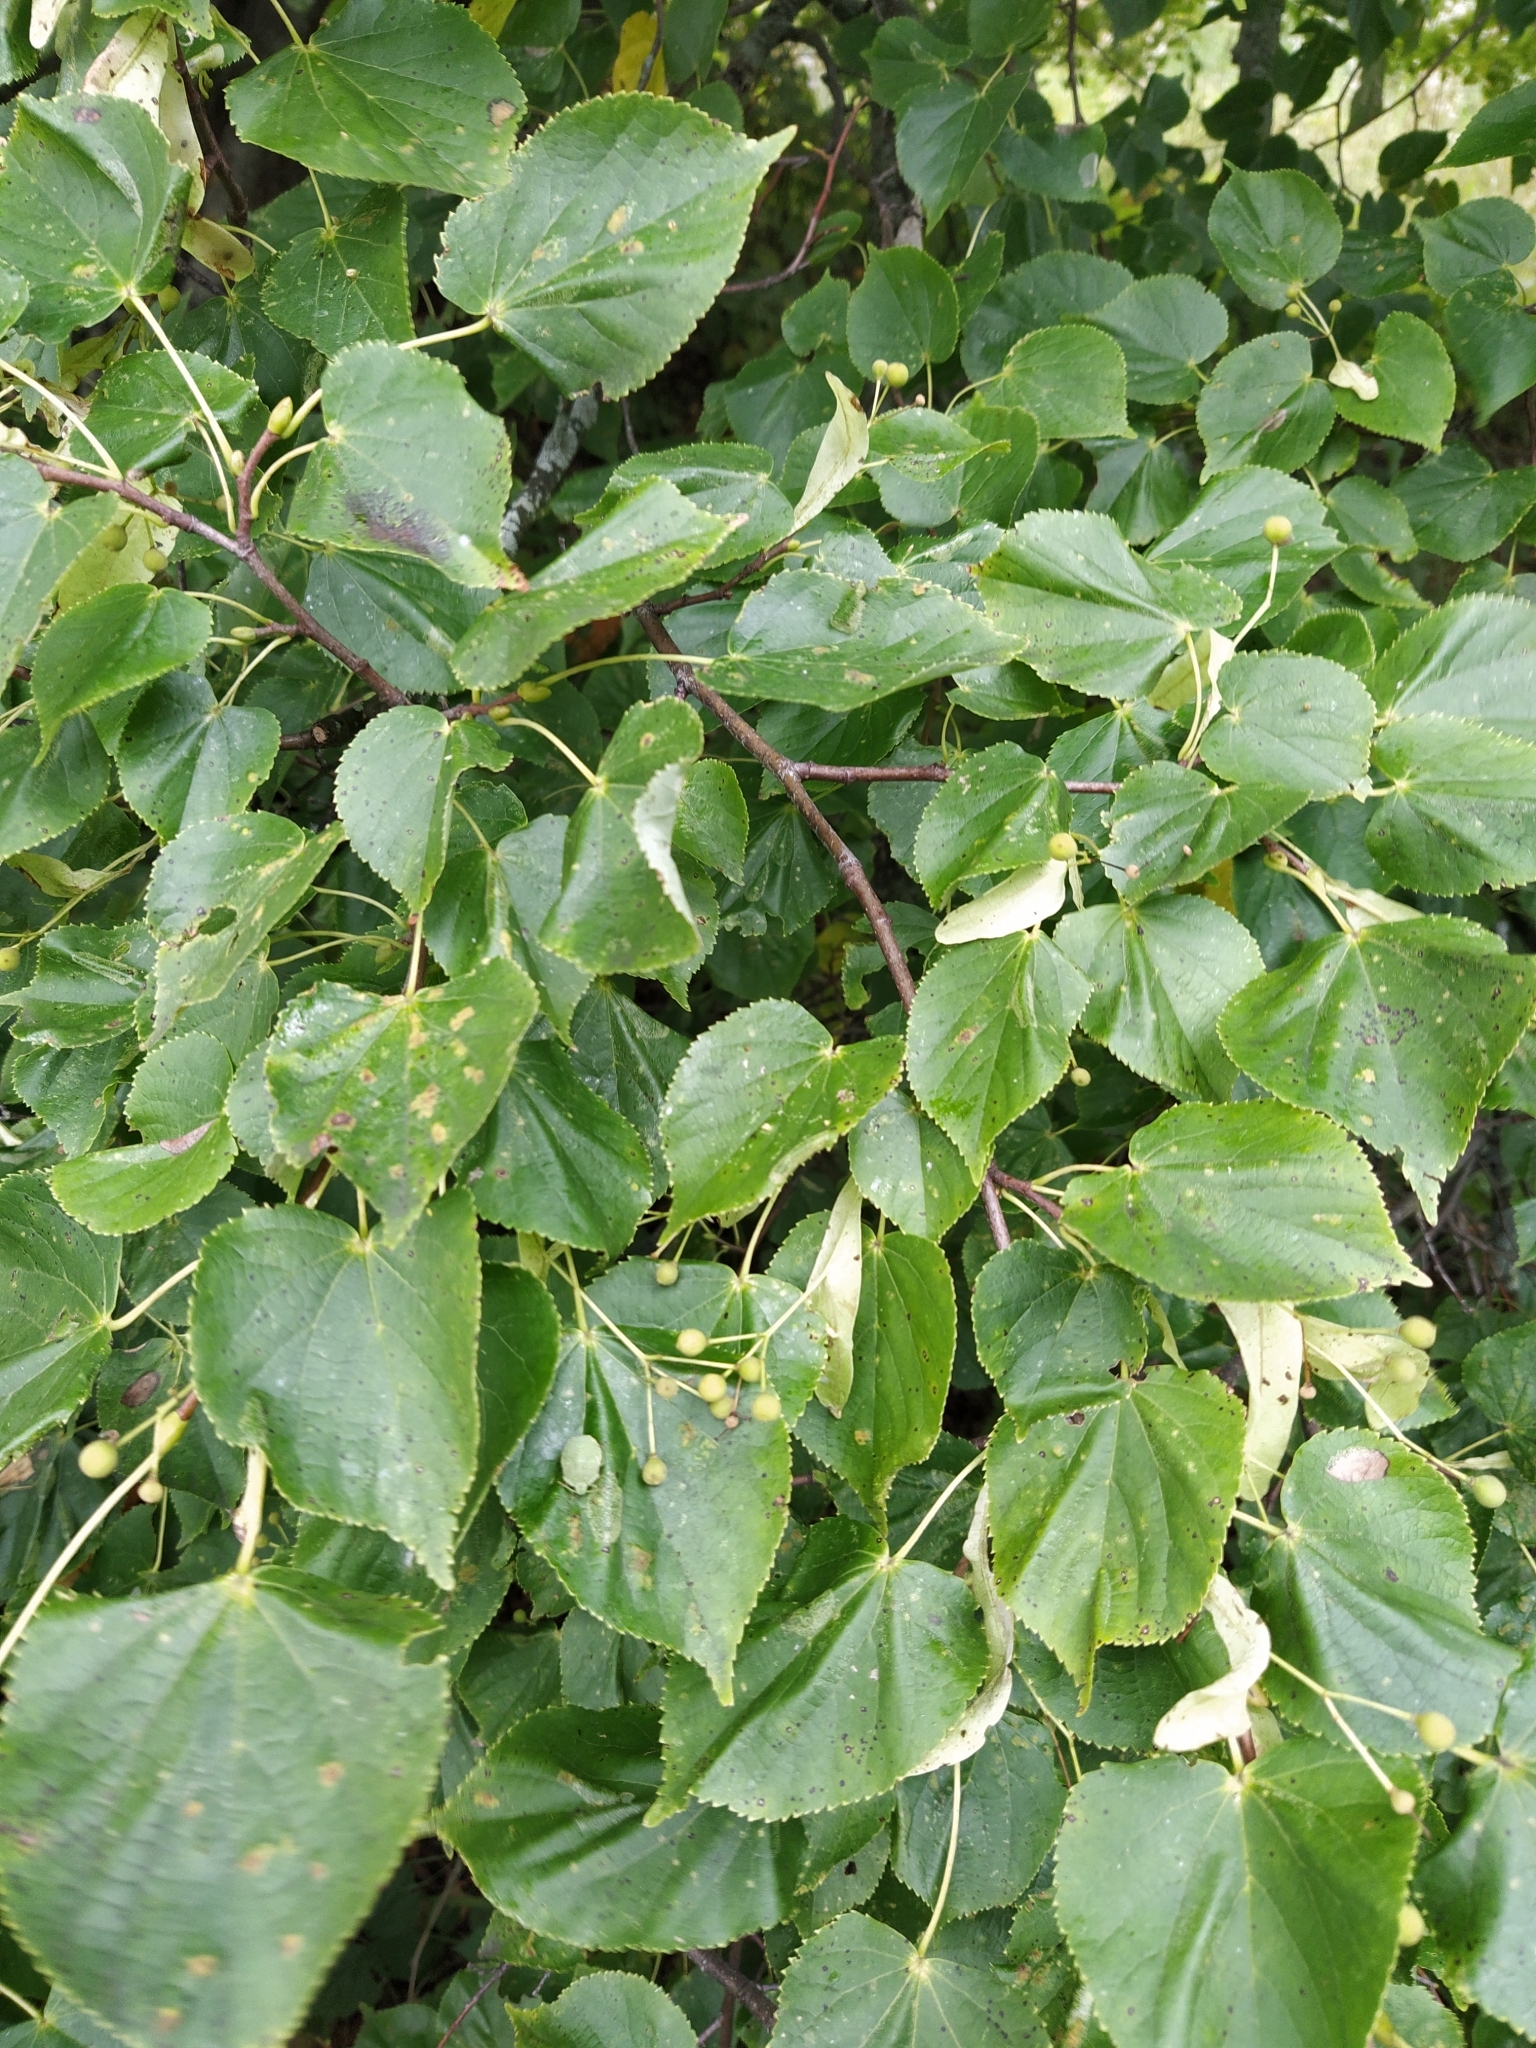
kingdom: Plantae
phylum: Tracheophyta
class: Magnoliopsida
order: Malvales
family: Malvaceae
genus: Tilia
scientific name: Tilia cordata
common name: Small-leaved lime
